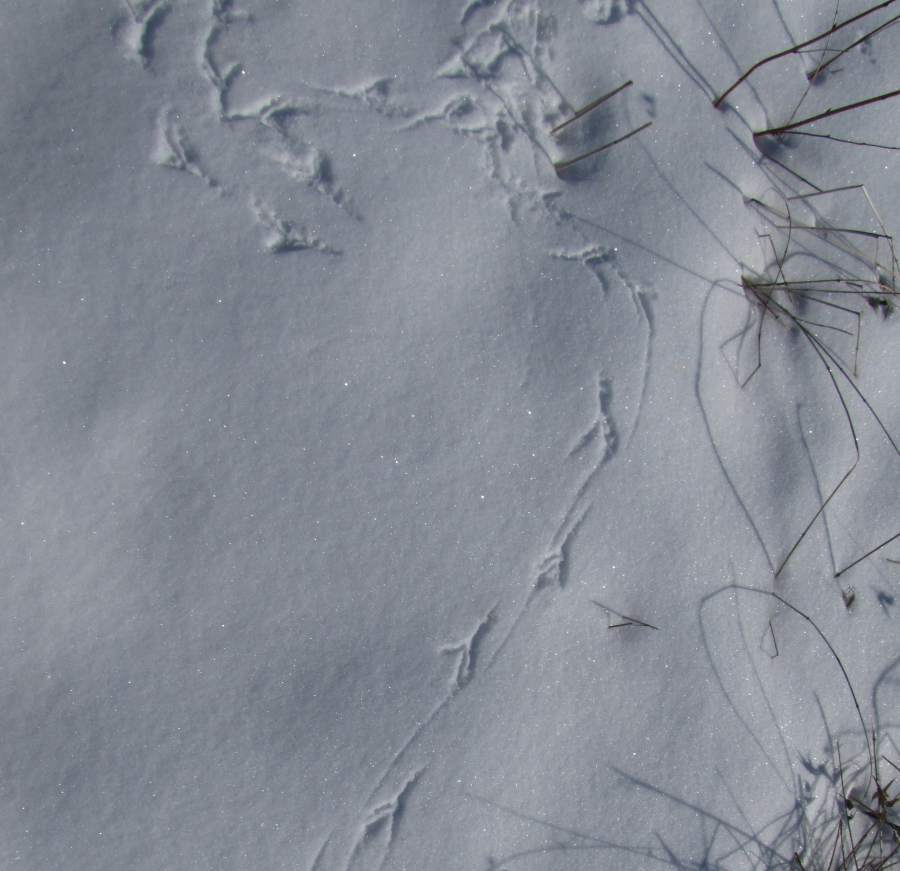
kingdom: Animalia
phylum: Chordata
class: Aves
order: Passeriformes
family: Corvidae
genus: Corvus
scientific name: Corvus brachyrhynchos
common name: American crow
